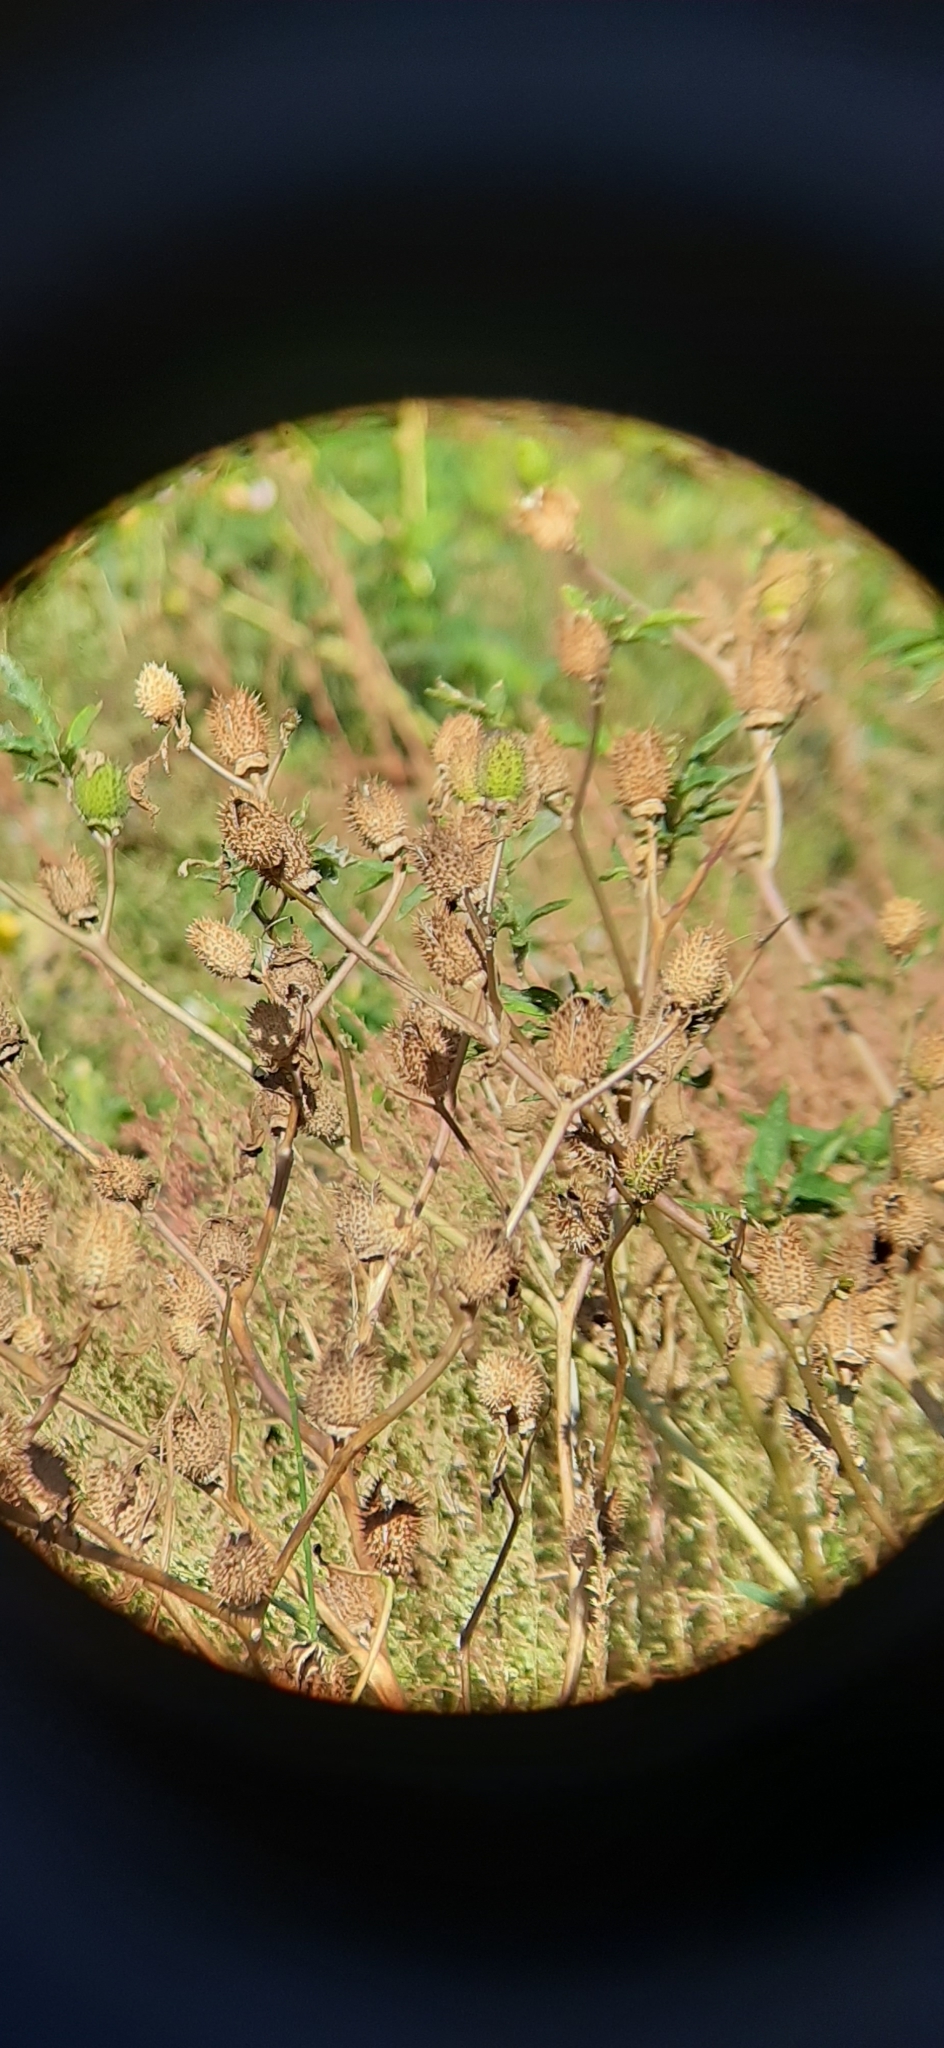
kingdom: Plantae
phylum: Tracheophyta
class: Magnoliopsida
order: Solanales
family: Solanaceae
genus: Datura
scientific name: Datura stramonium
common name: Thorn-apple
